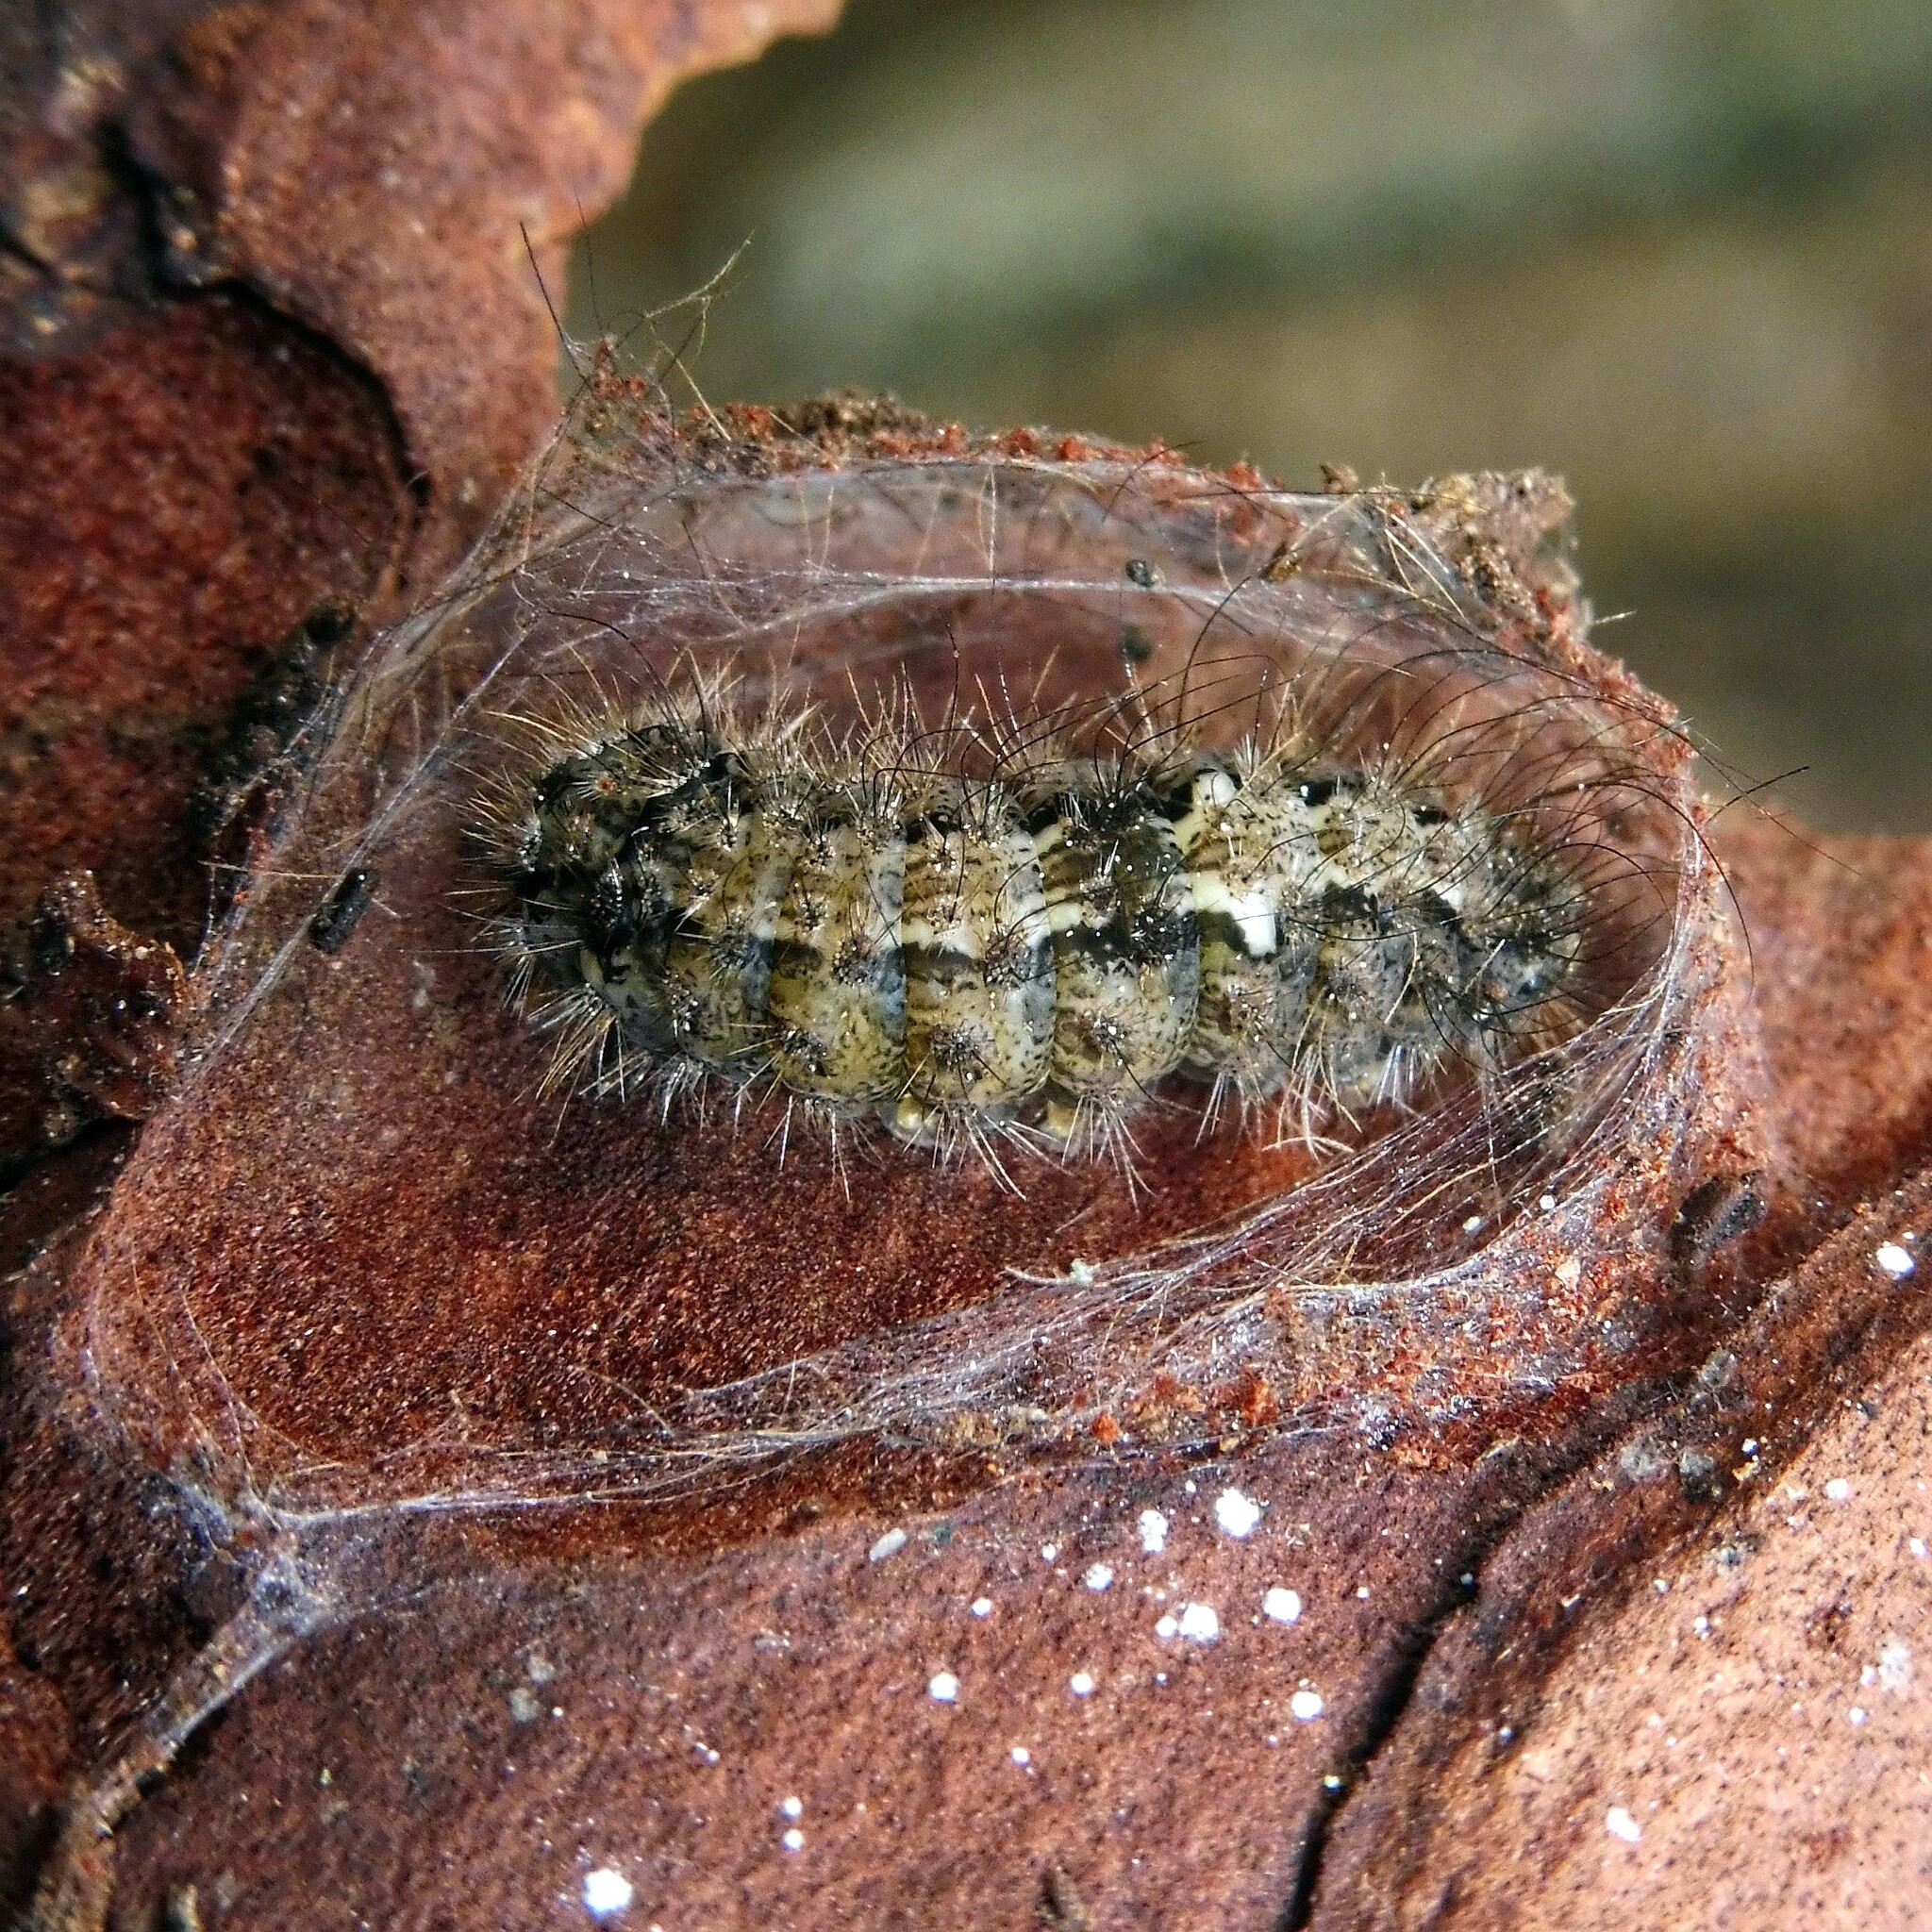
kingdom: Animalia
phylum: Arthropoda
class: Insecta
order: Lepidoptera
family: Erebidae
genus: Katha
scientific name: Katha depressa
